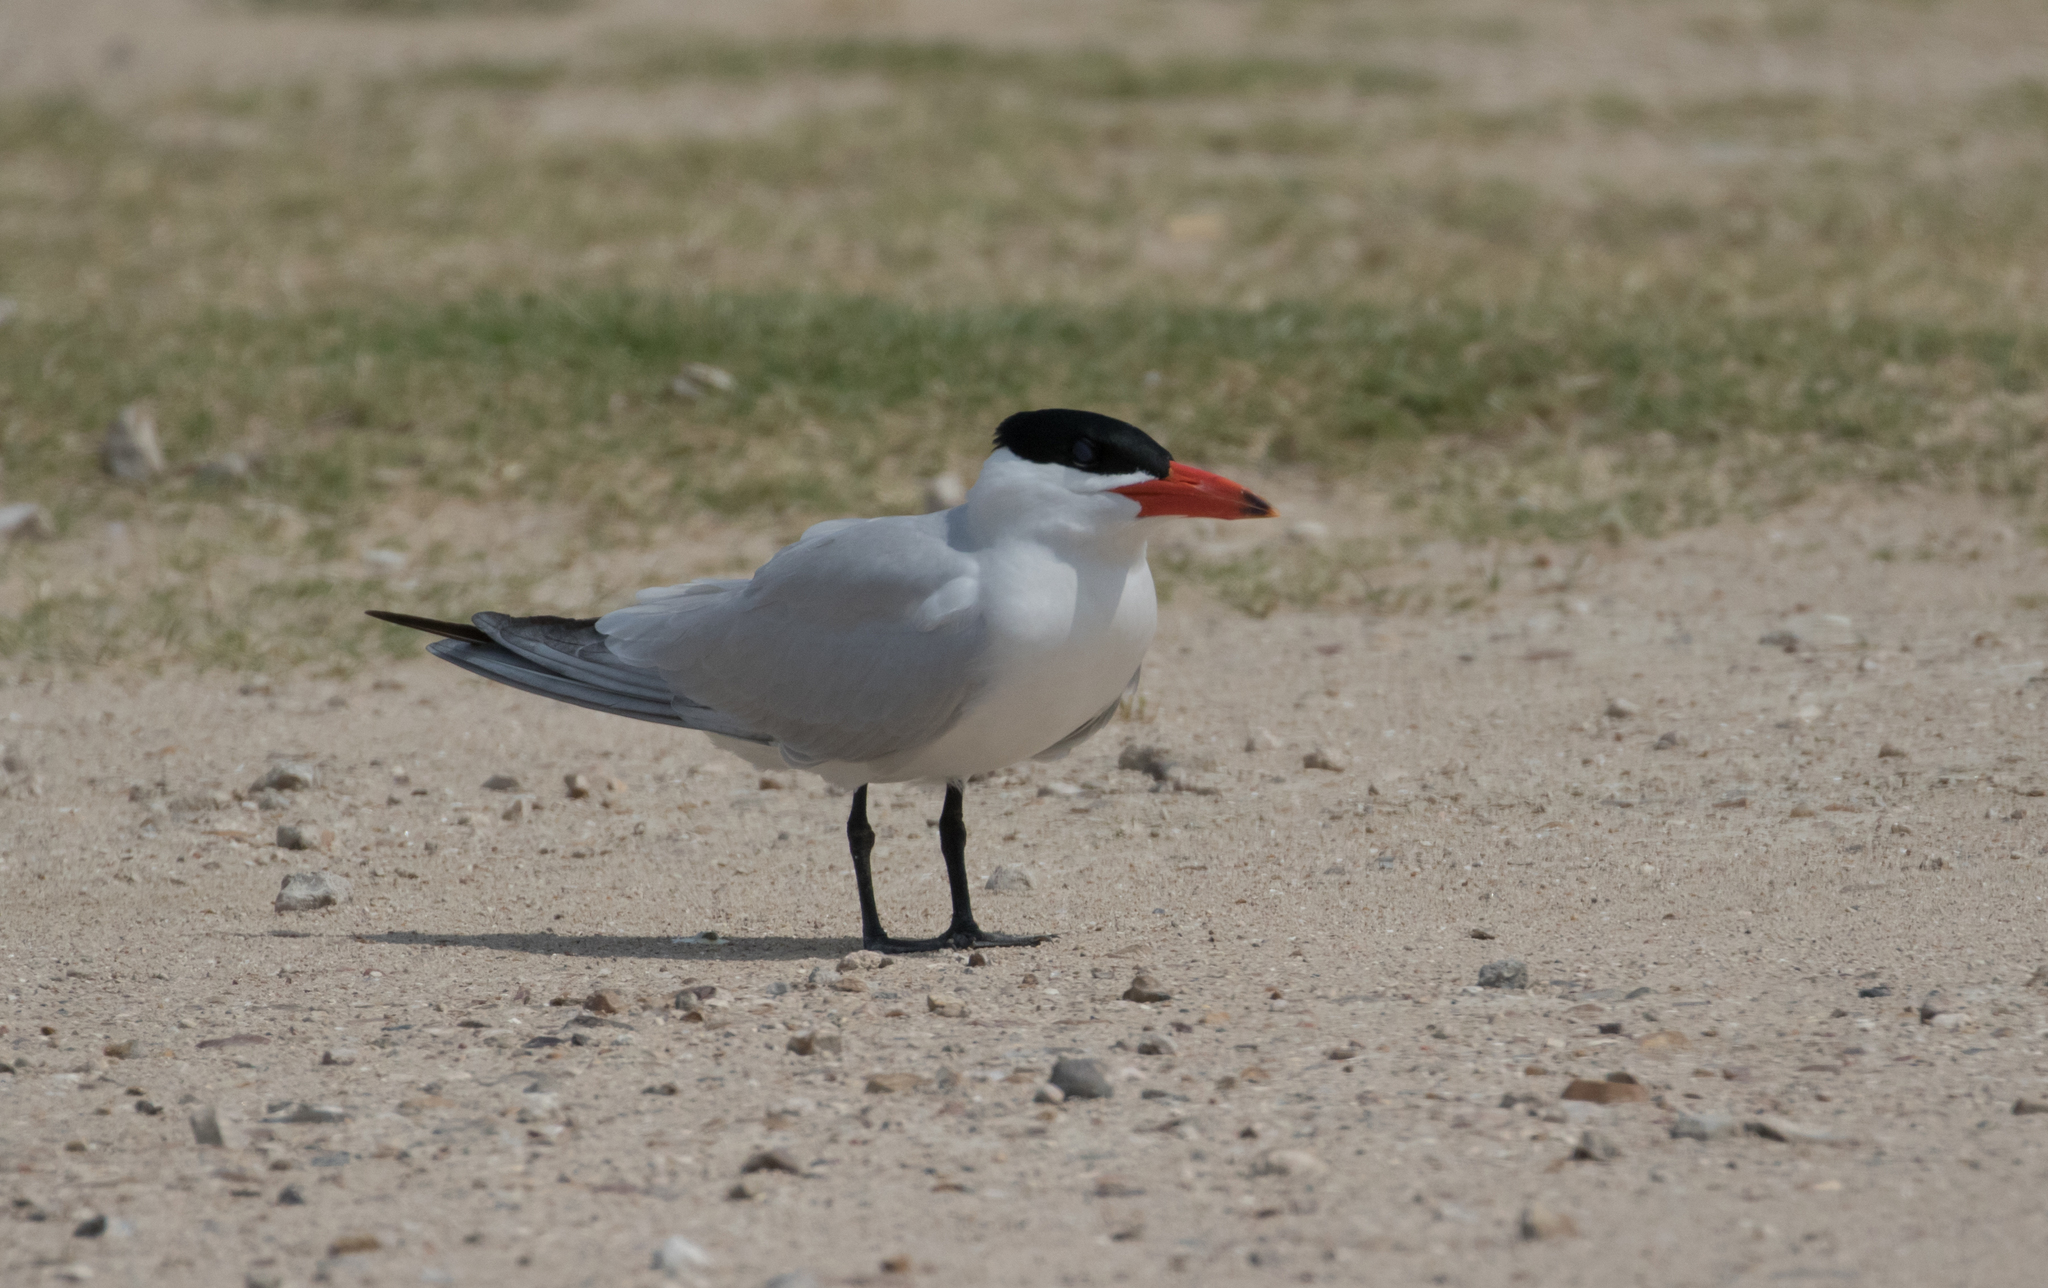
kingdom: Animalia
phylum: Chordata
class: Aves
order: Charadriiformes
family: Laridae
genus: Hydroprogne
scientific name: Hydroprogne caspia
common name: Caspian tern
